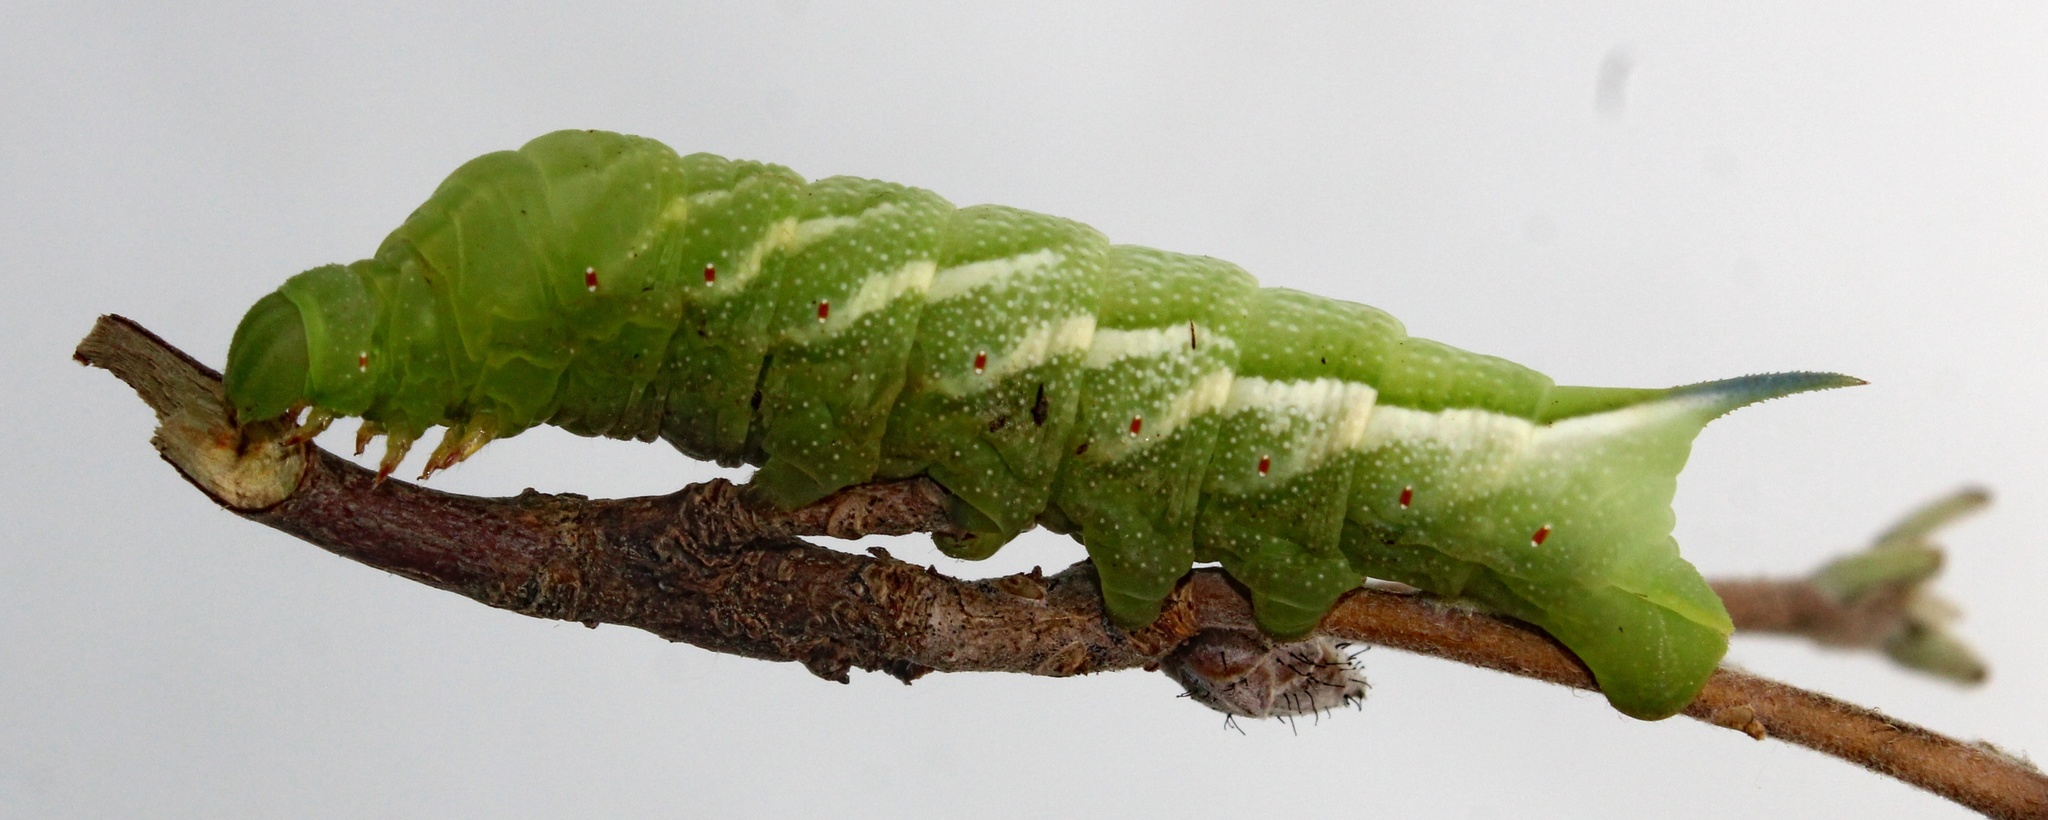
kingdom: Animalia
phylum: Arthropoda
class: Insecta
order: Lepidoptera
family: Sphingidae
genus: Darapsa
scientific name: Darapsa choerilus
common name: Azalea sphinx
